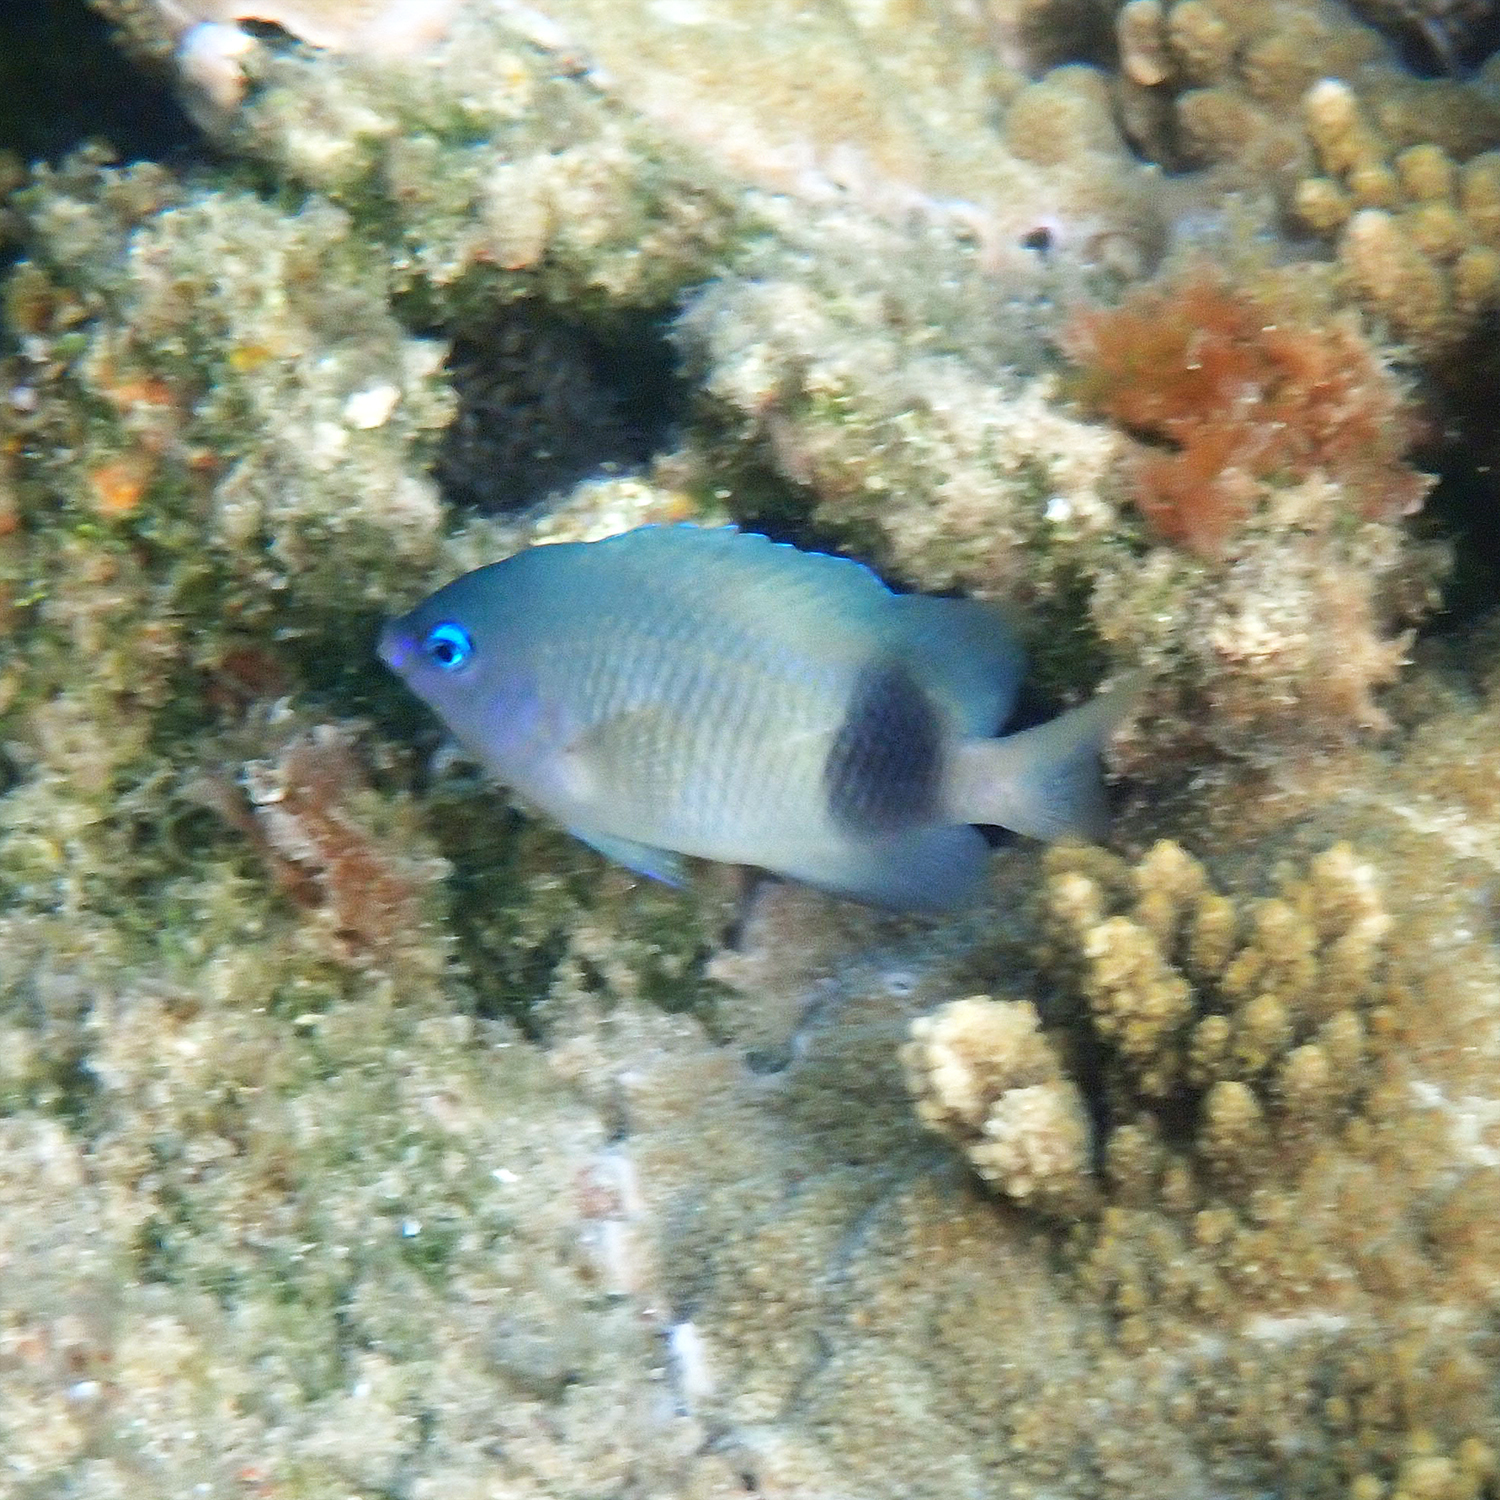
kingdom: Animalia
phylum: Chordata
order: Perciformes
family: Pomacentridae
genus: Plectroglyphidodon
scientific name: Plectroglyphidodon johnstonianus
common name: Johnston damsel
